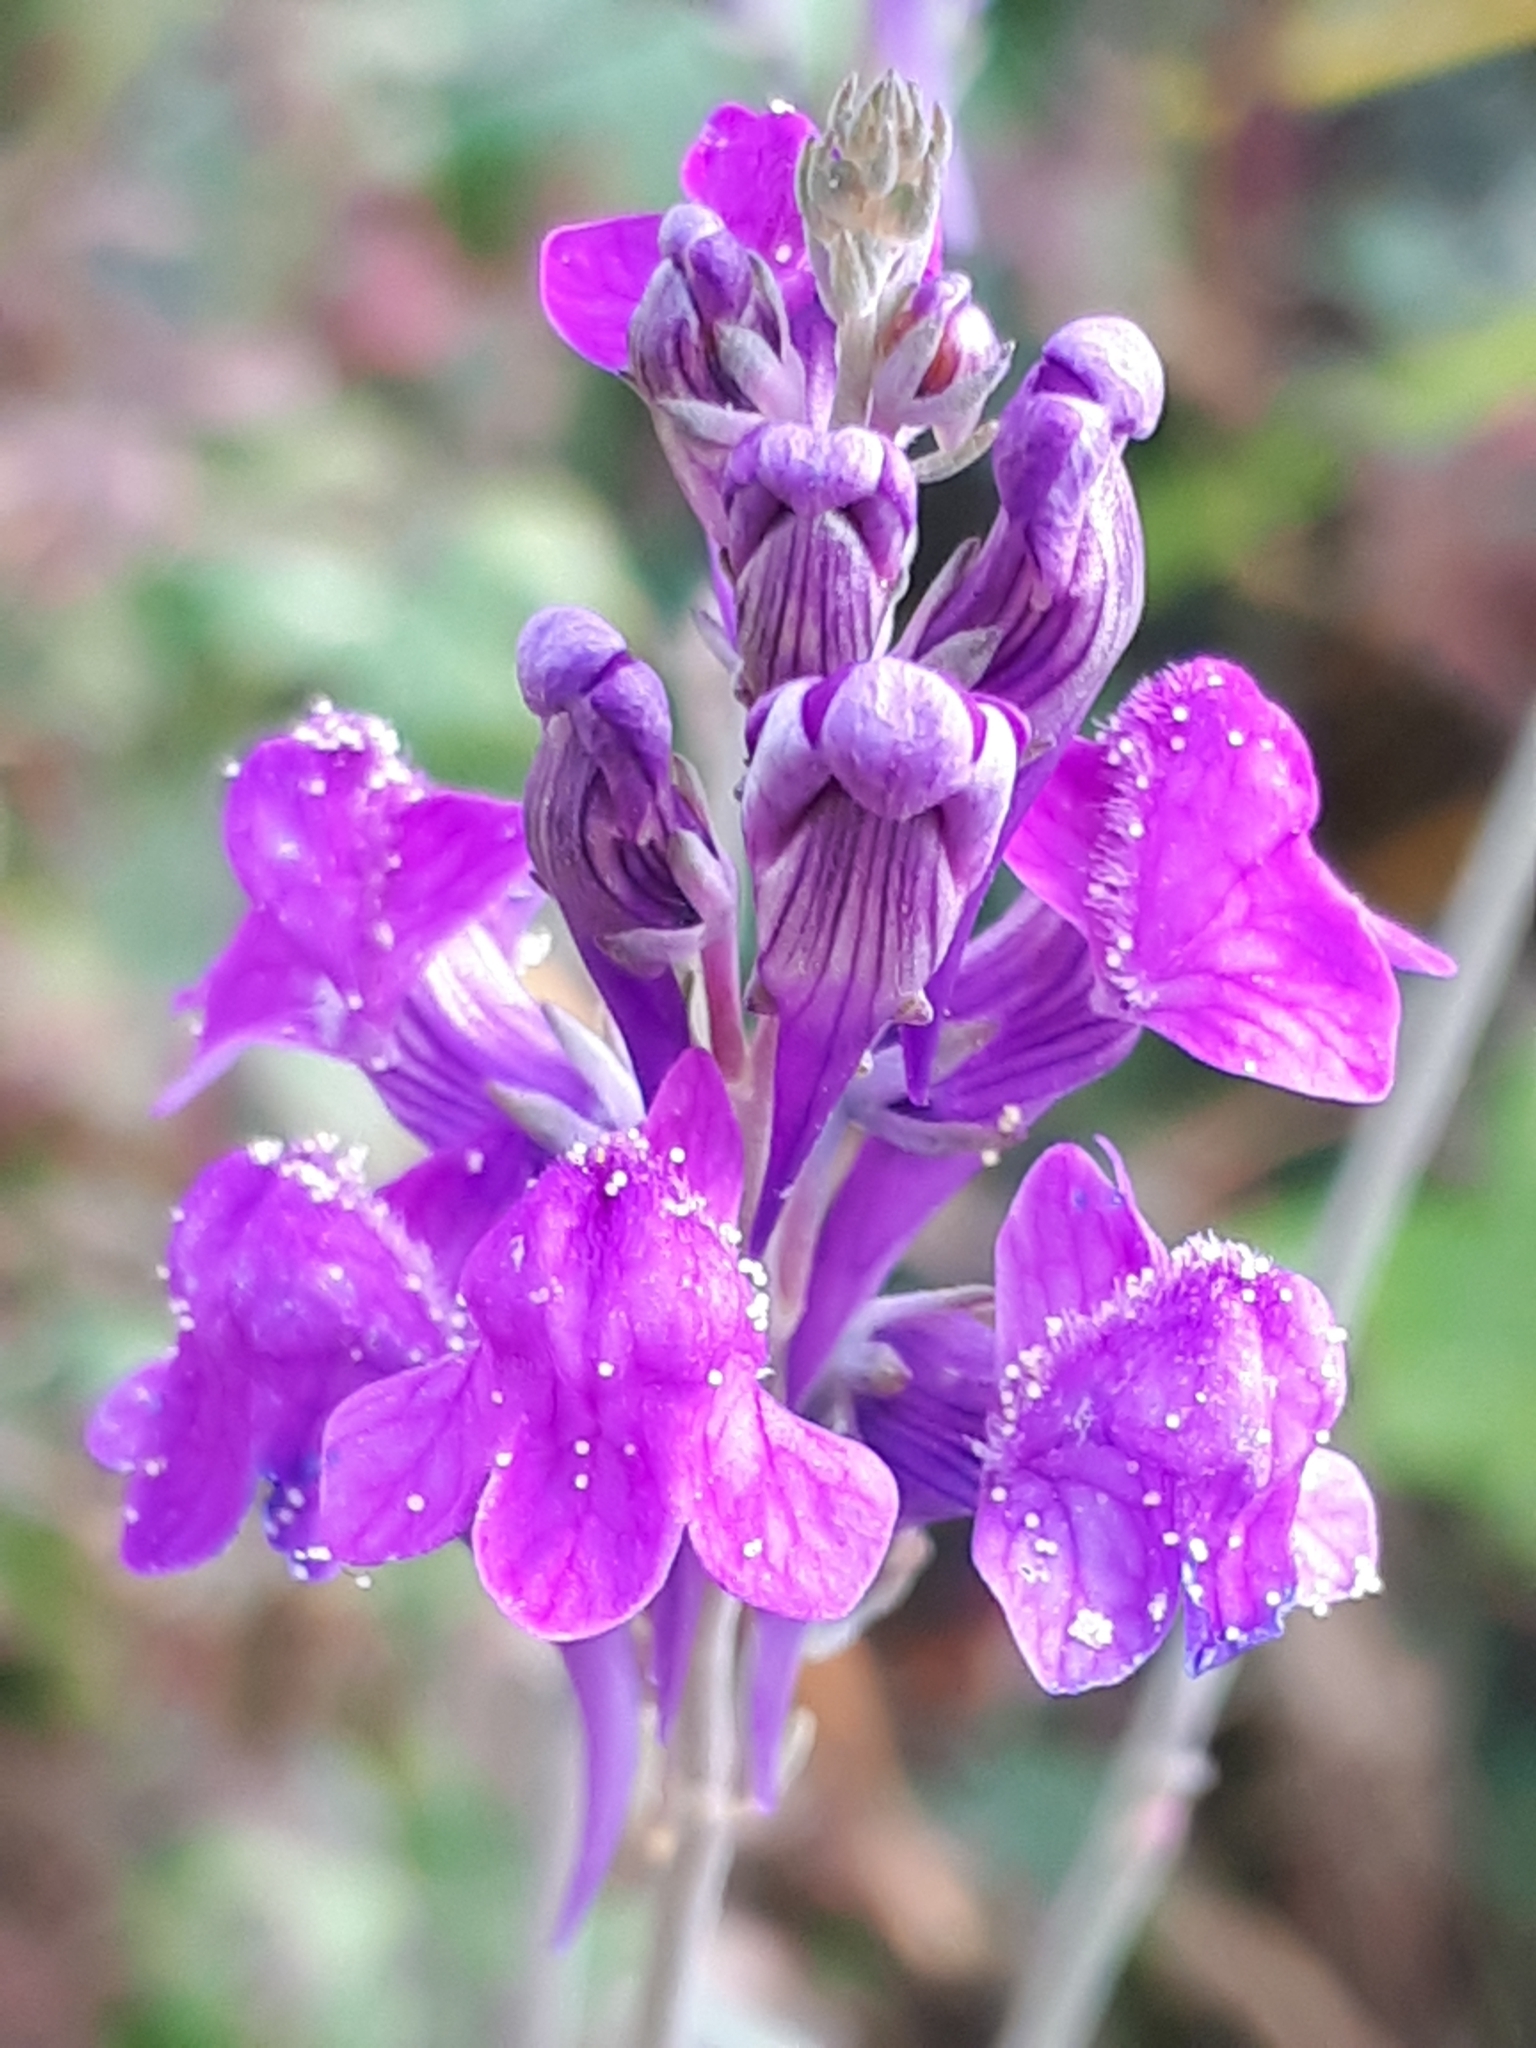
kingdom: Plantae
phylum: Tracheophyta
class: Magnoliopsida
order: Lamiales
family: Plantaginaceae
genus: Linaria
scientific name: Linaria purpurea
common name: Purple toadflax
